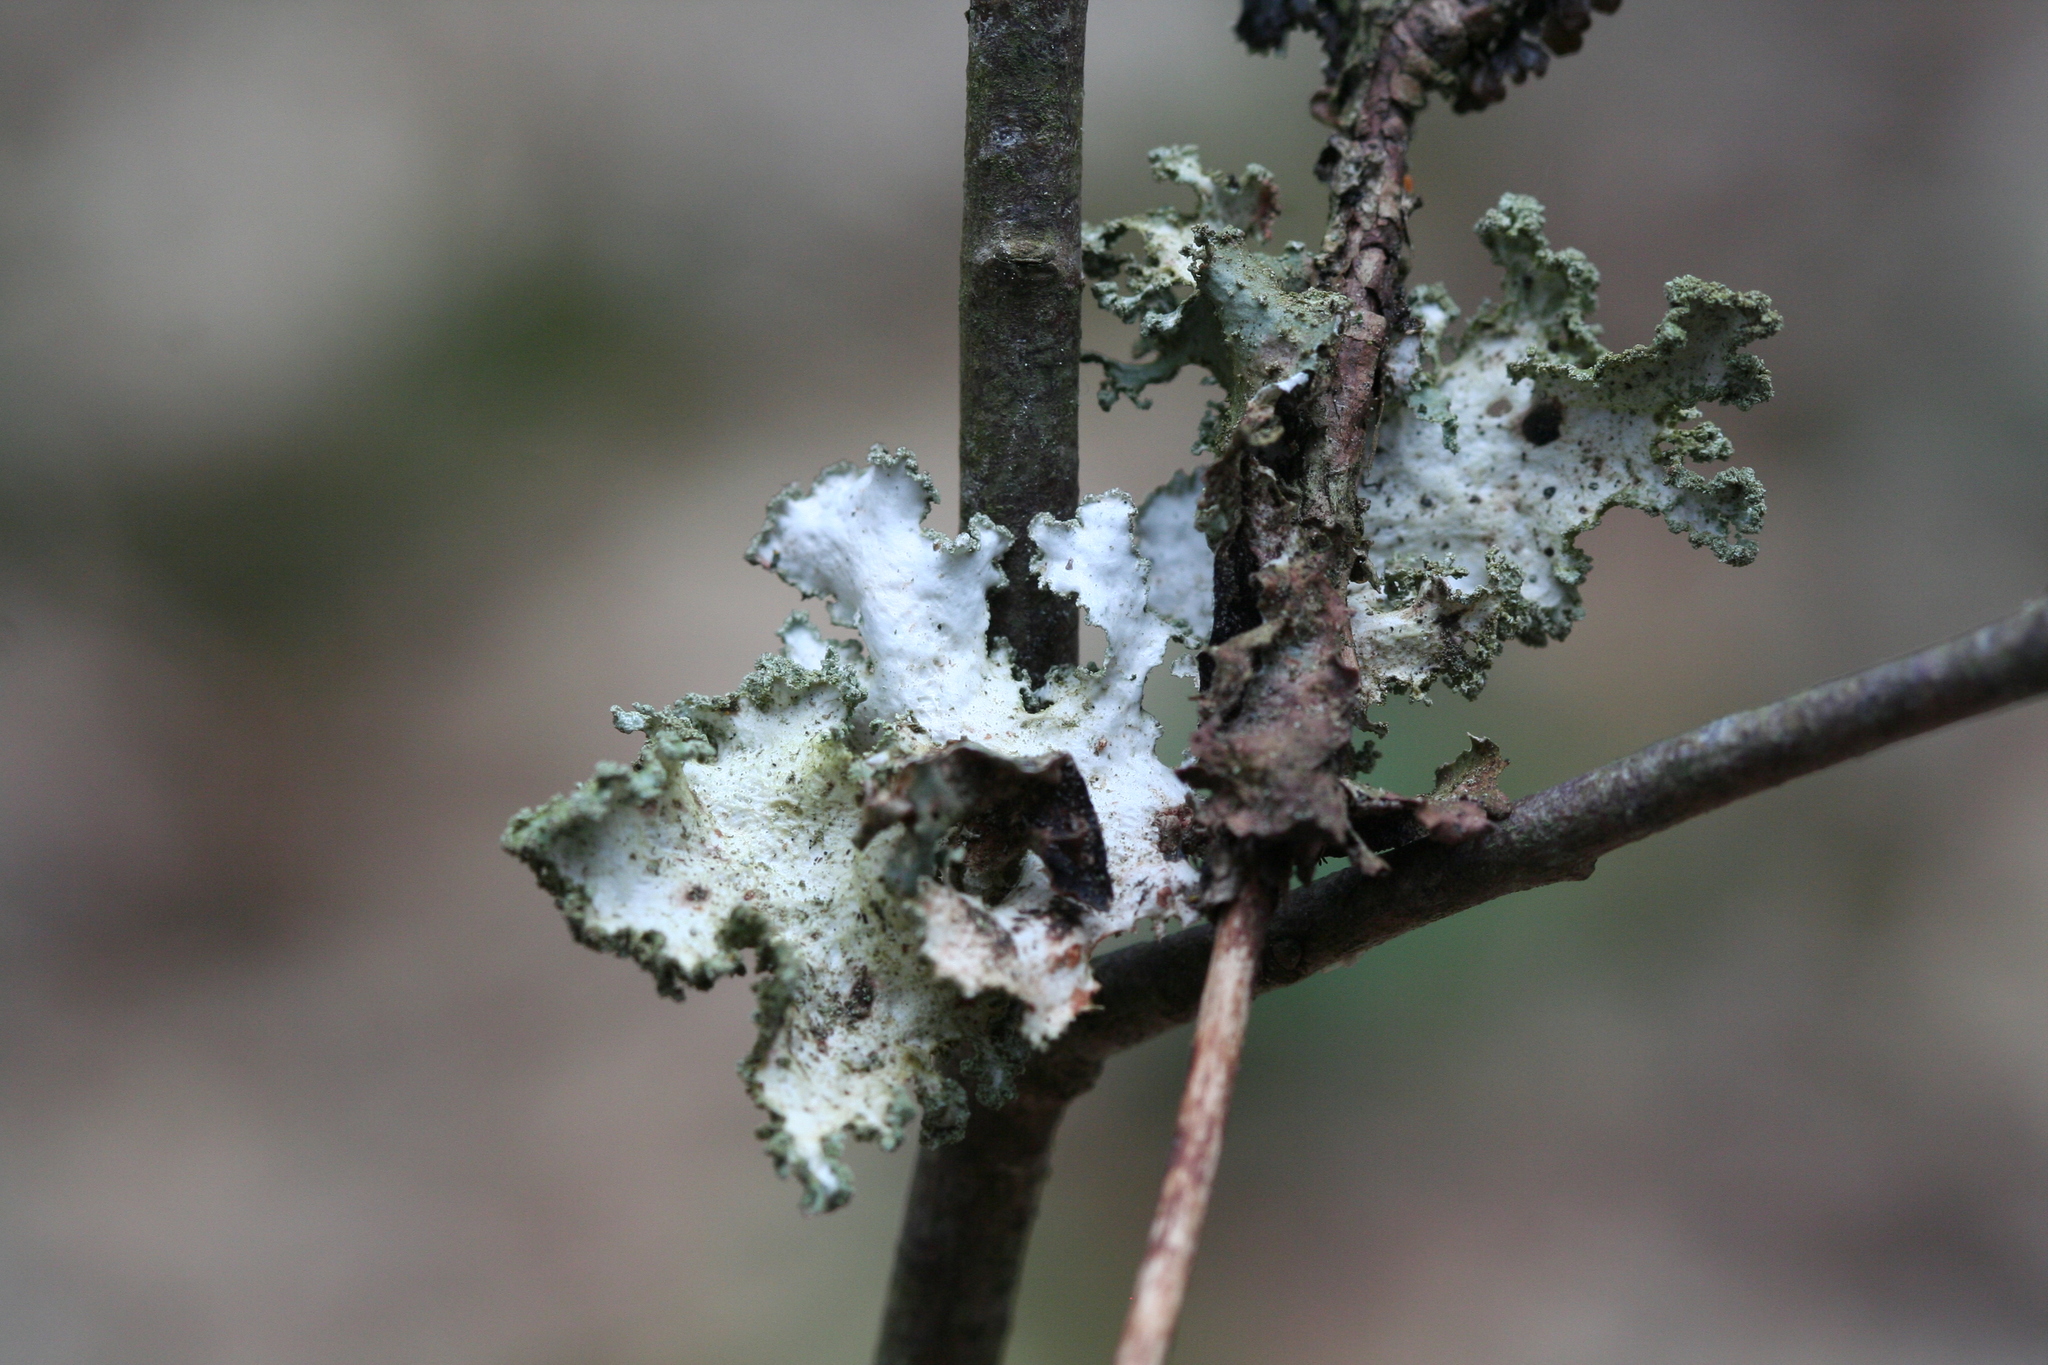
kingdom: Fungi
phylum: Ascomycota
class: Lecanoromycetes
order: Lecanorales
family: Parmeliaceae
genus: Platismatia
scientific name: Platismatia glauca
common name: Varied rag lichen
